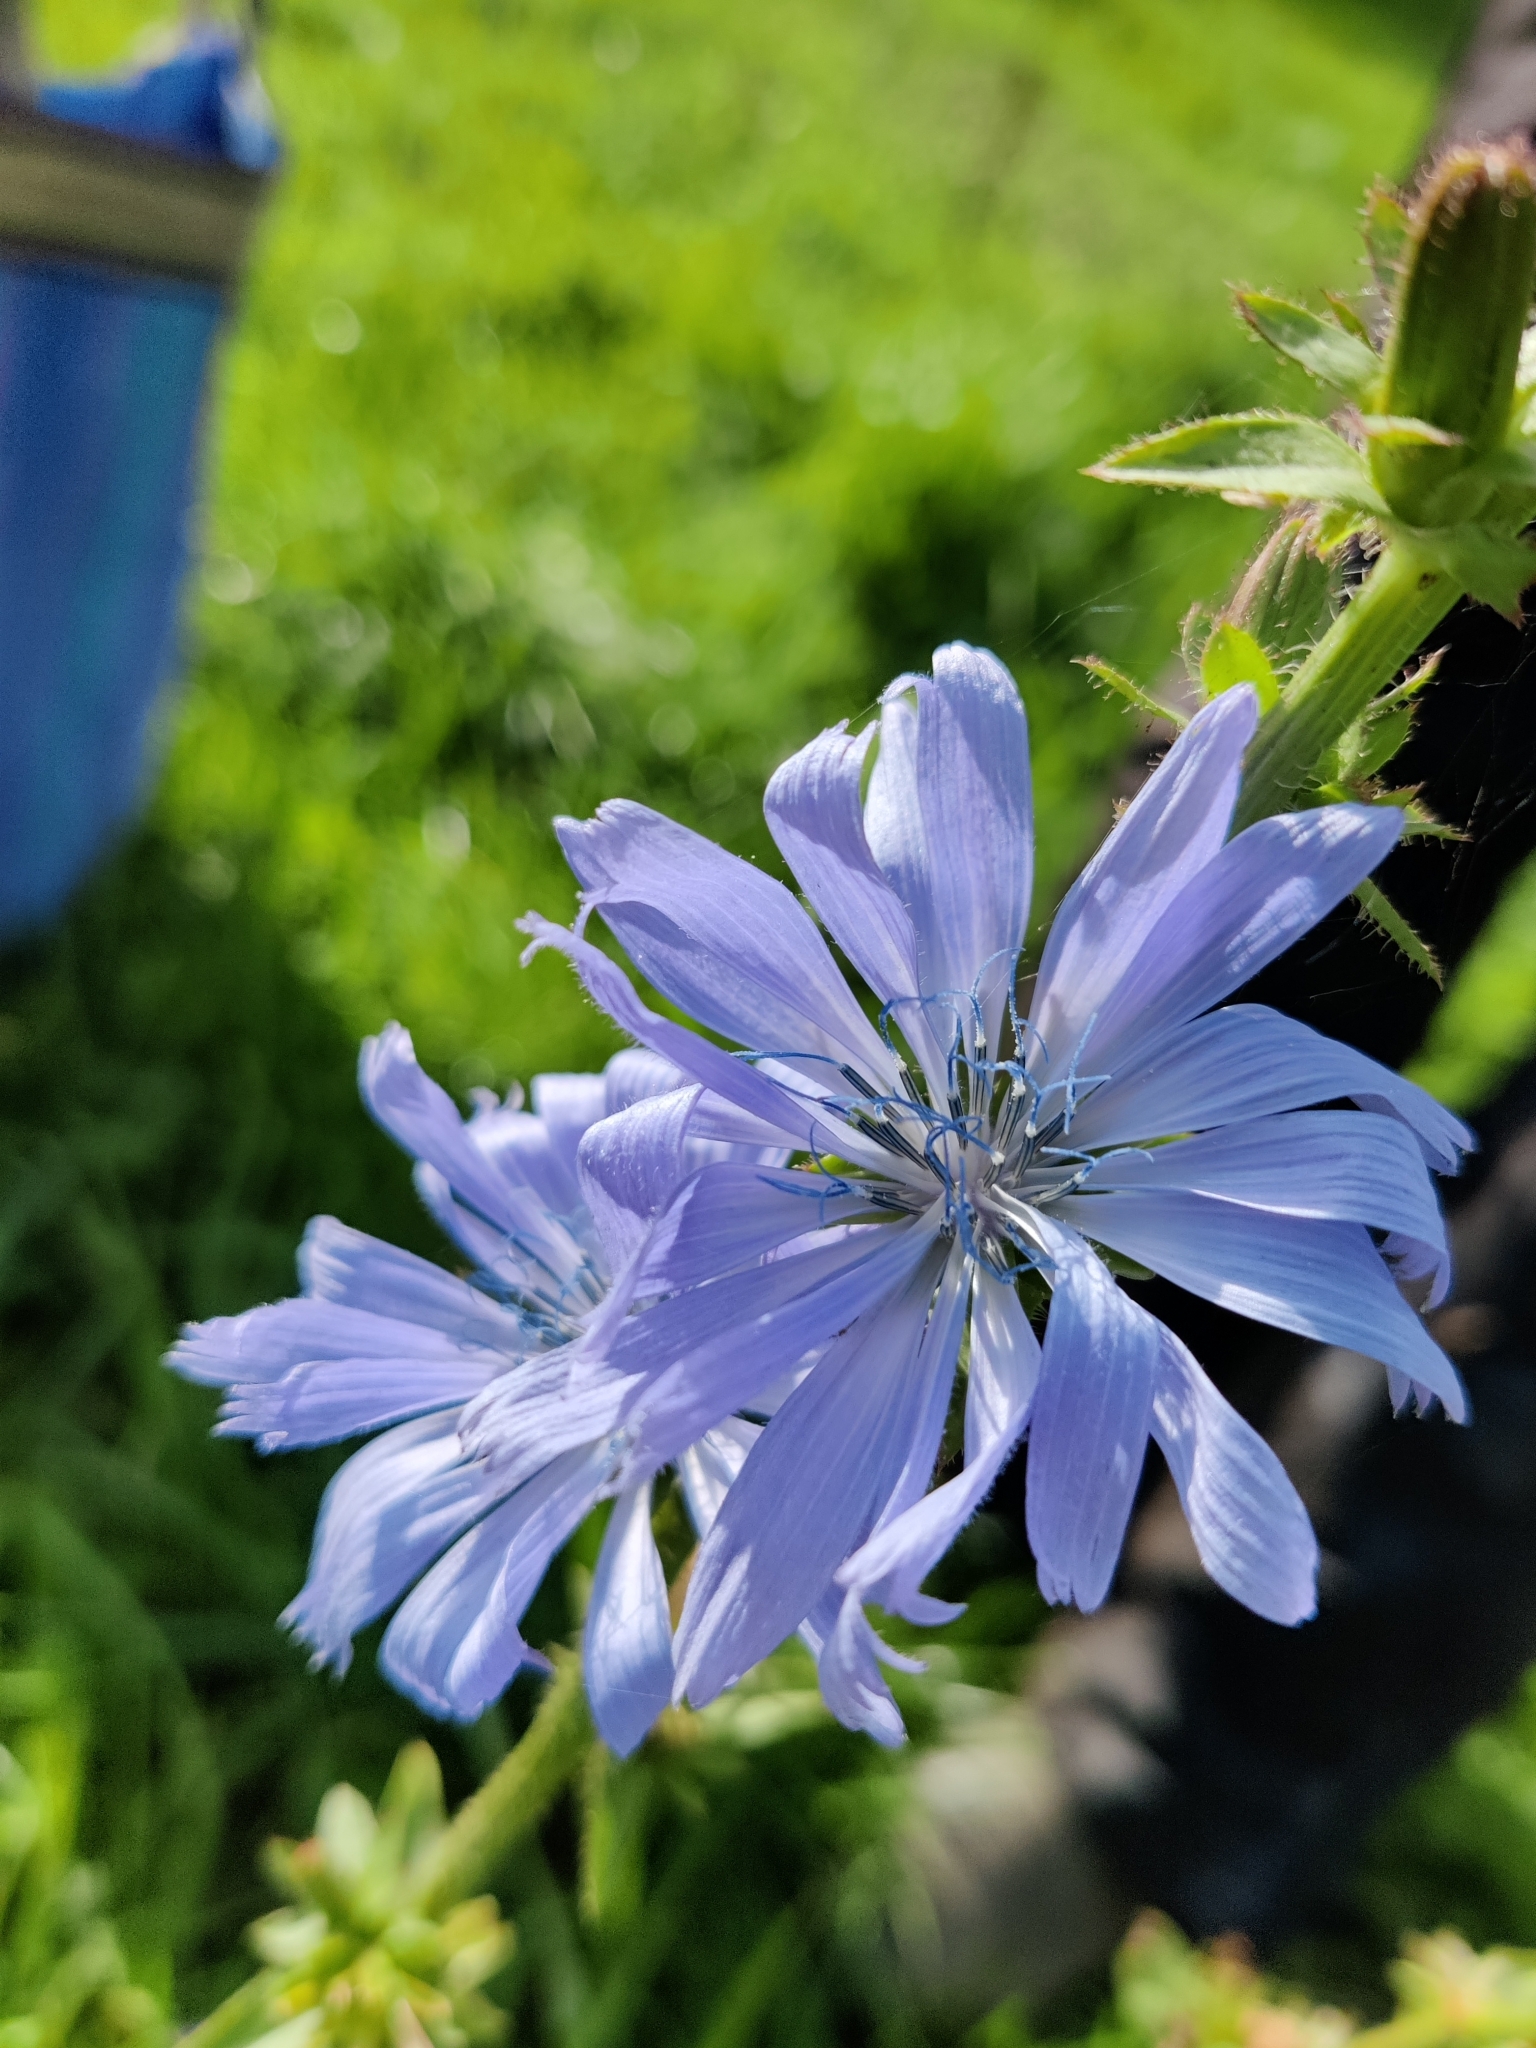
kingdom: Plantae
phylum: Tracheophyta
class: Magnoliopsida
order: Asterales
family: Asteraceae
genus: Cichorium
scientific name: Cichorium intybus
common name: Chicory
